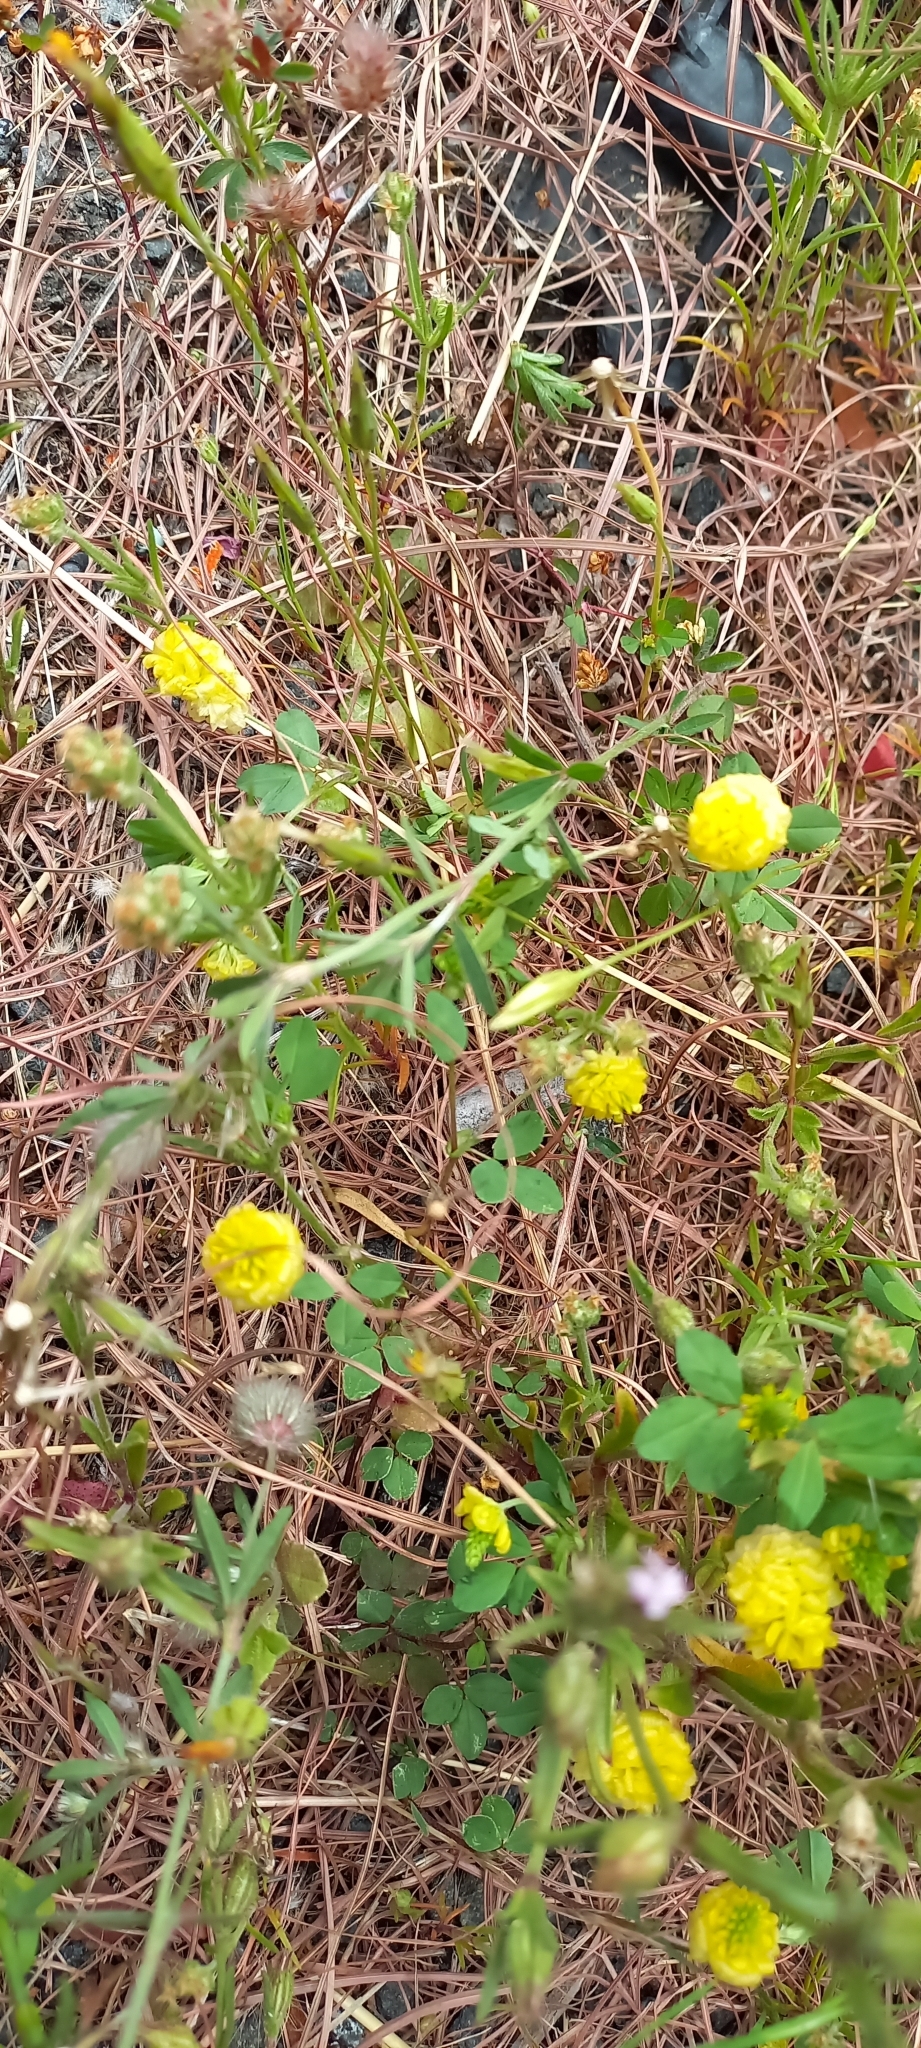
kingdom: Plantae
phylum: Tracheophyta
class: Magnoliopsida
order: Fabales
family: Fabaceae
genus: Trifolium
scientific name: Trifolium campestre
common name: Field clover
